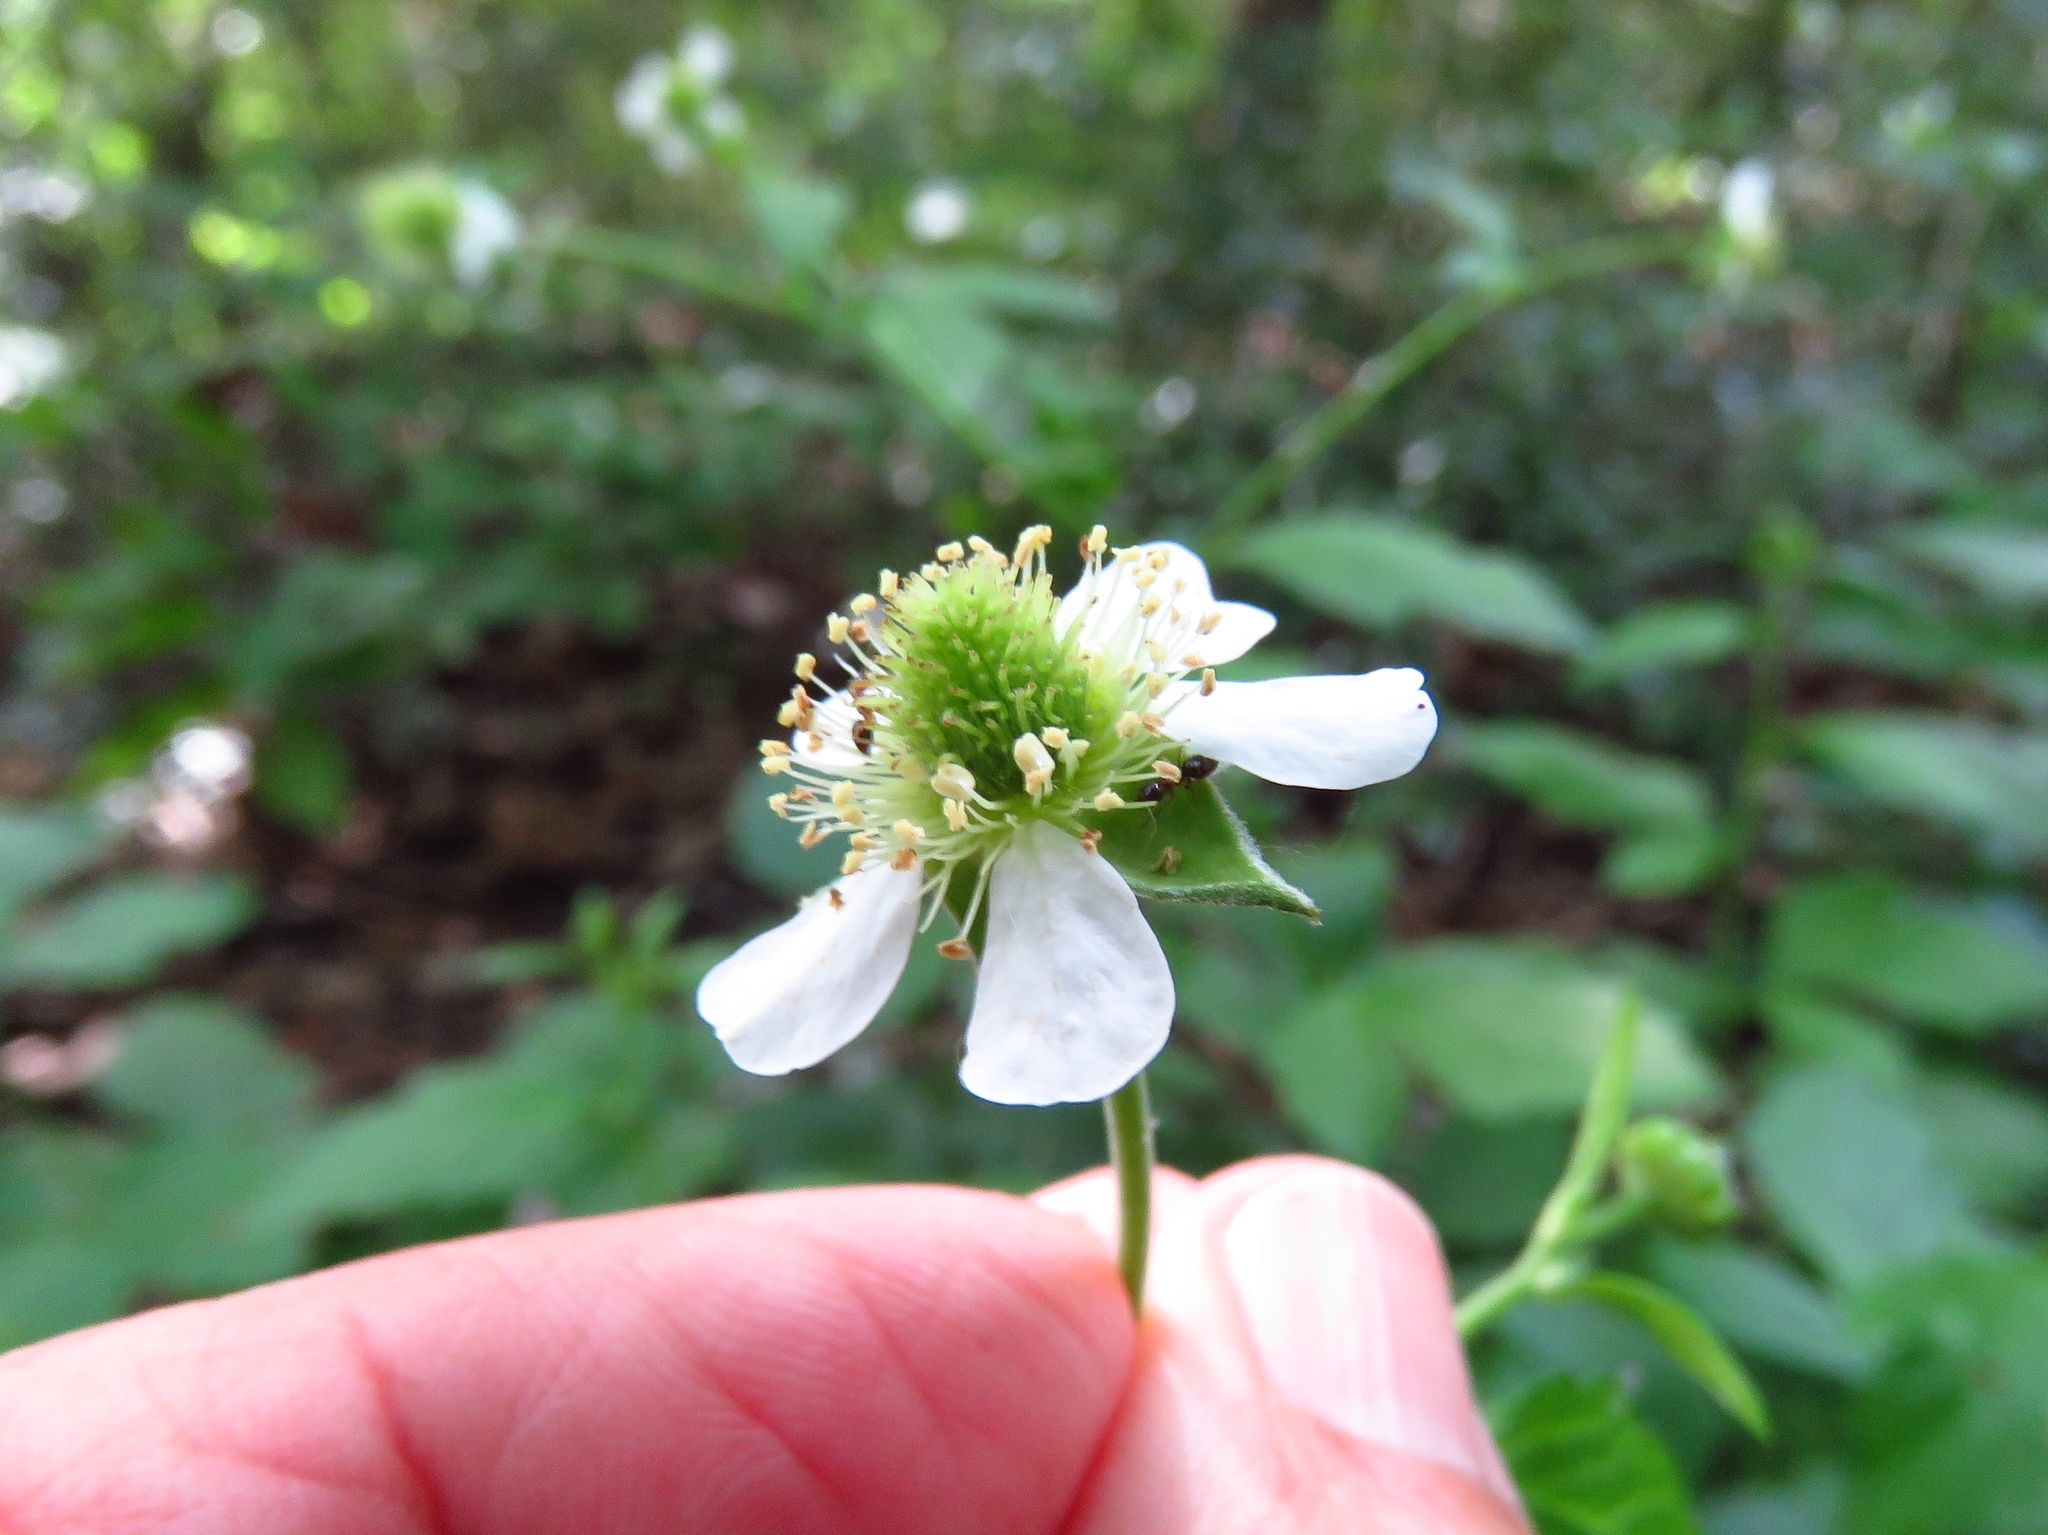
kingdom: Plantae
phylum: Tracheophyta
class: Magnoliopsida
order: Rosales
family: Rosaceae
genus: Geum
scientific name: Geum canadense
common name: White avens
